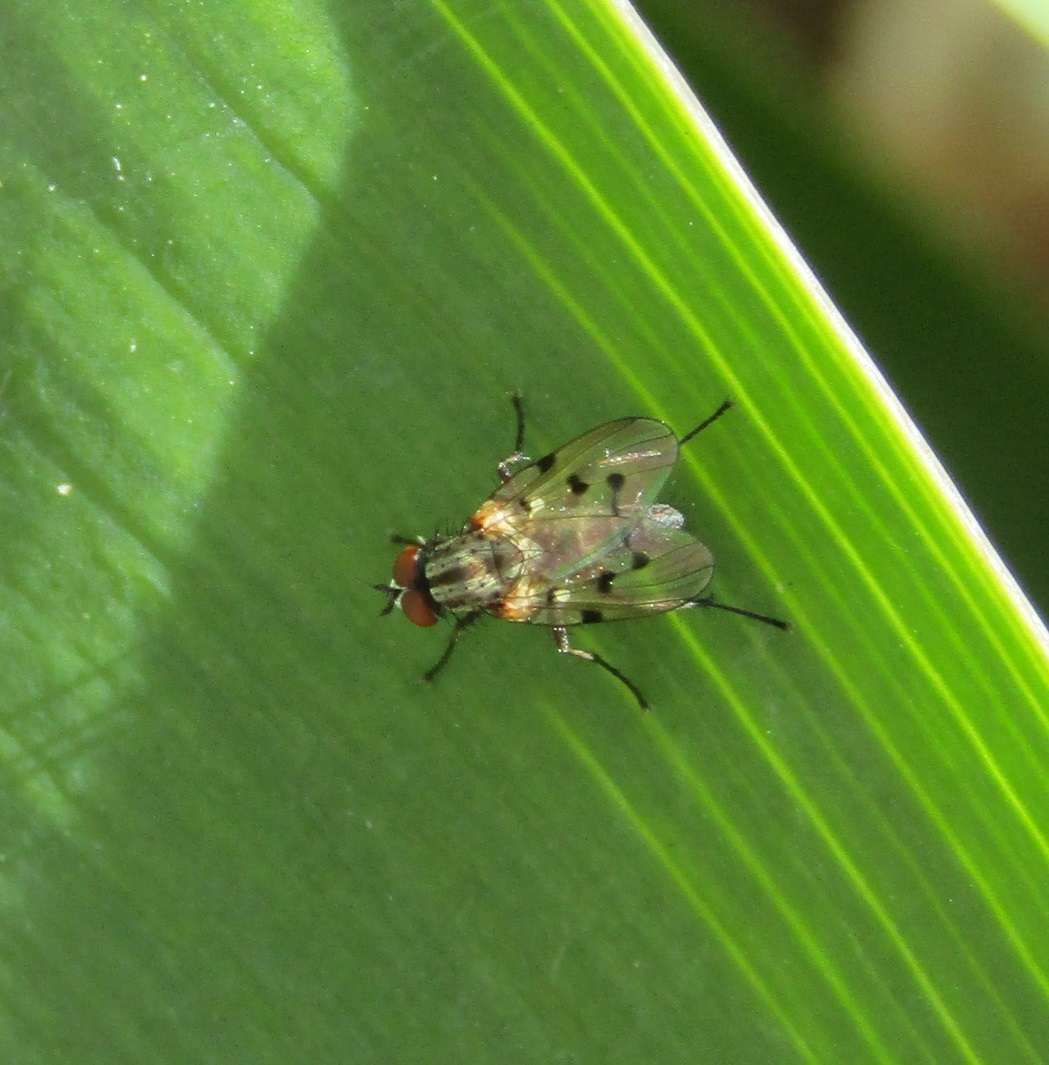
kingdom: Animalia
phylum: Arthropoda
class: Insecta
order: Diptera
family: Anthomyiidae
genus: Anthomyia
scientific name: Anthomyia punctipennis
